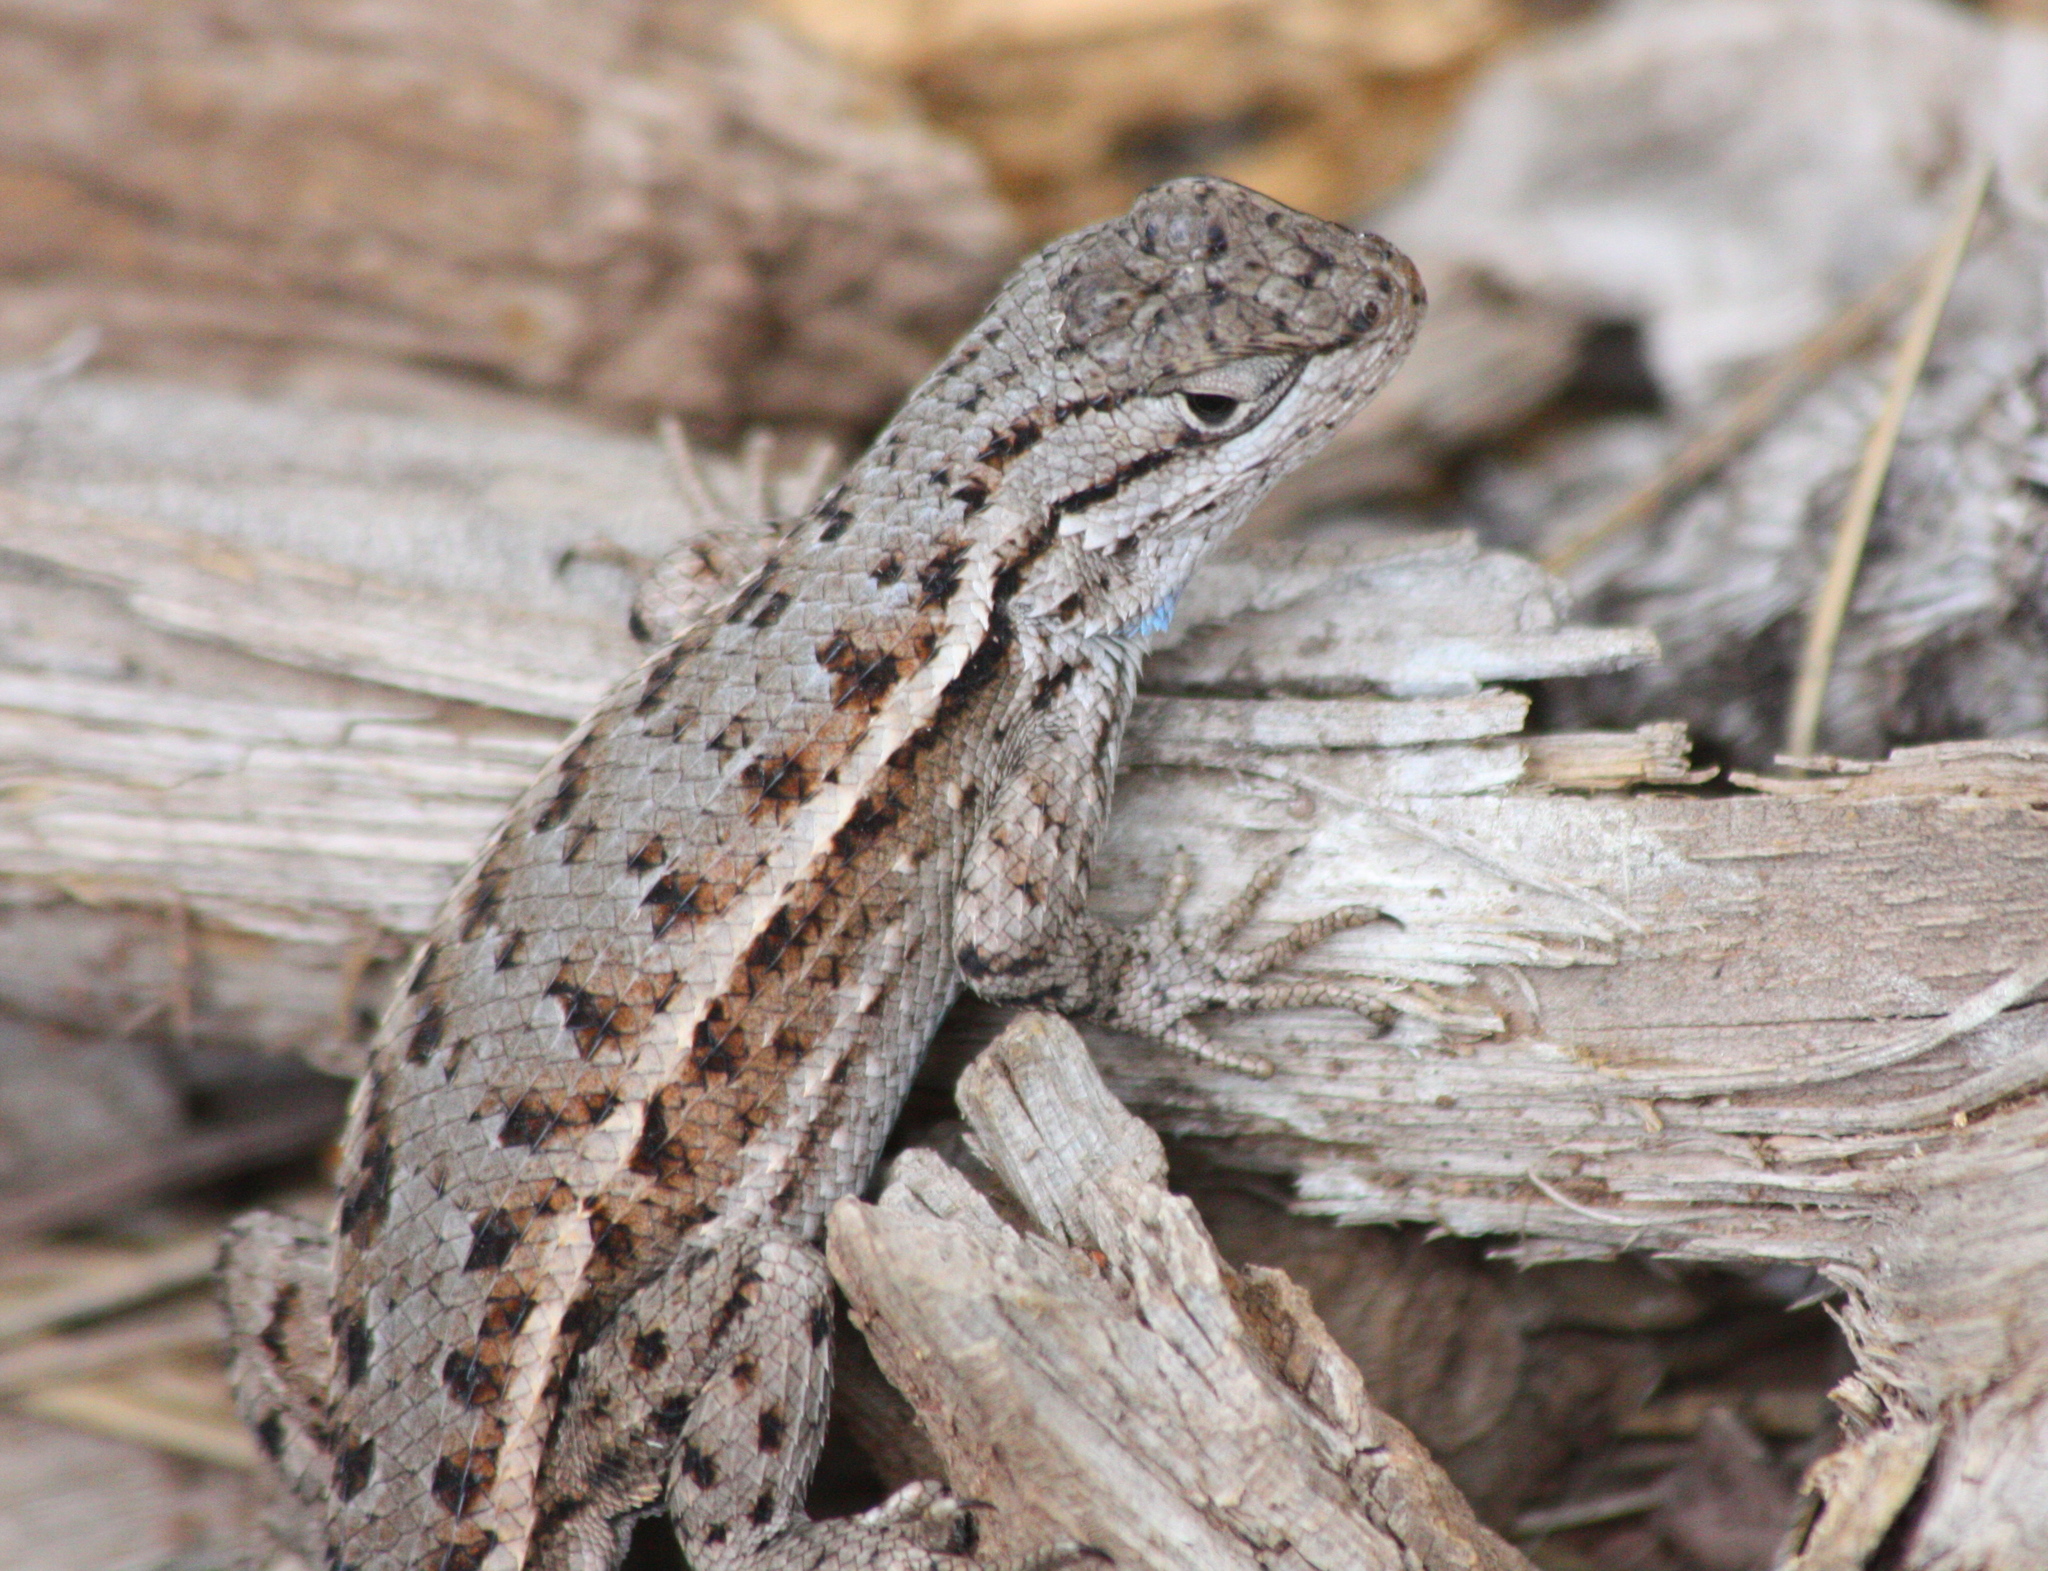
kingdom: Animalia
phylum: Chordata
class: Squamata
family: Phrynosomatidae
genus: Sceloporus
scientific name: Sceloporus tristichus
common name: Plateau fence lizard
